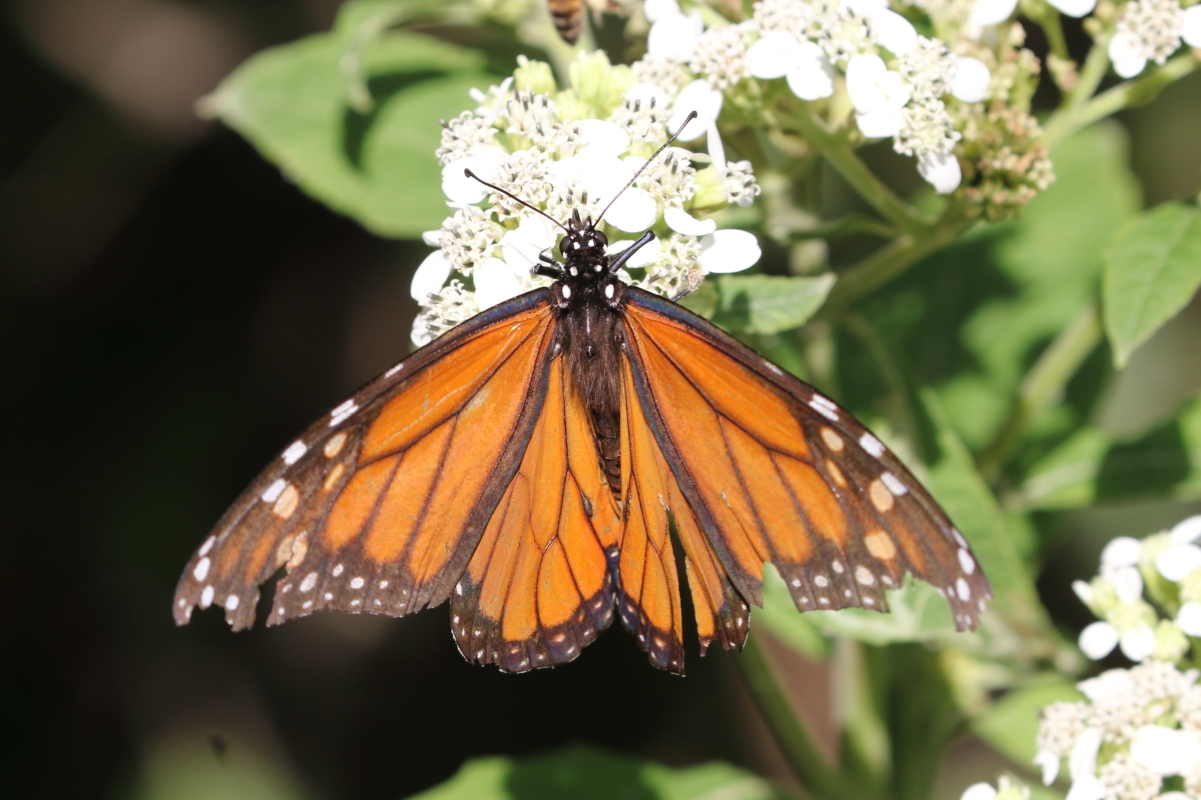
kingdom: Animalia
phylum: Arthropoda
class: Insecta
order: Lepidoptera
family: Nymphalidae
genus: Danaus
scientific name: Danaus plexippus
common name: Monarch
